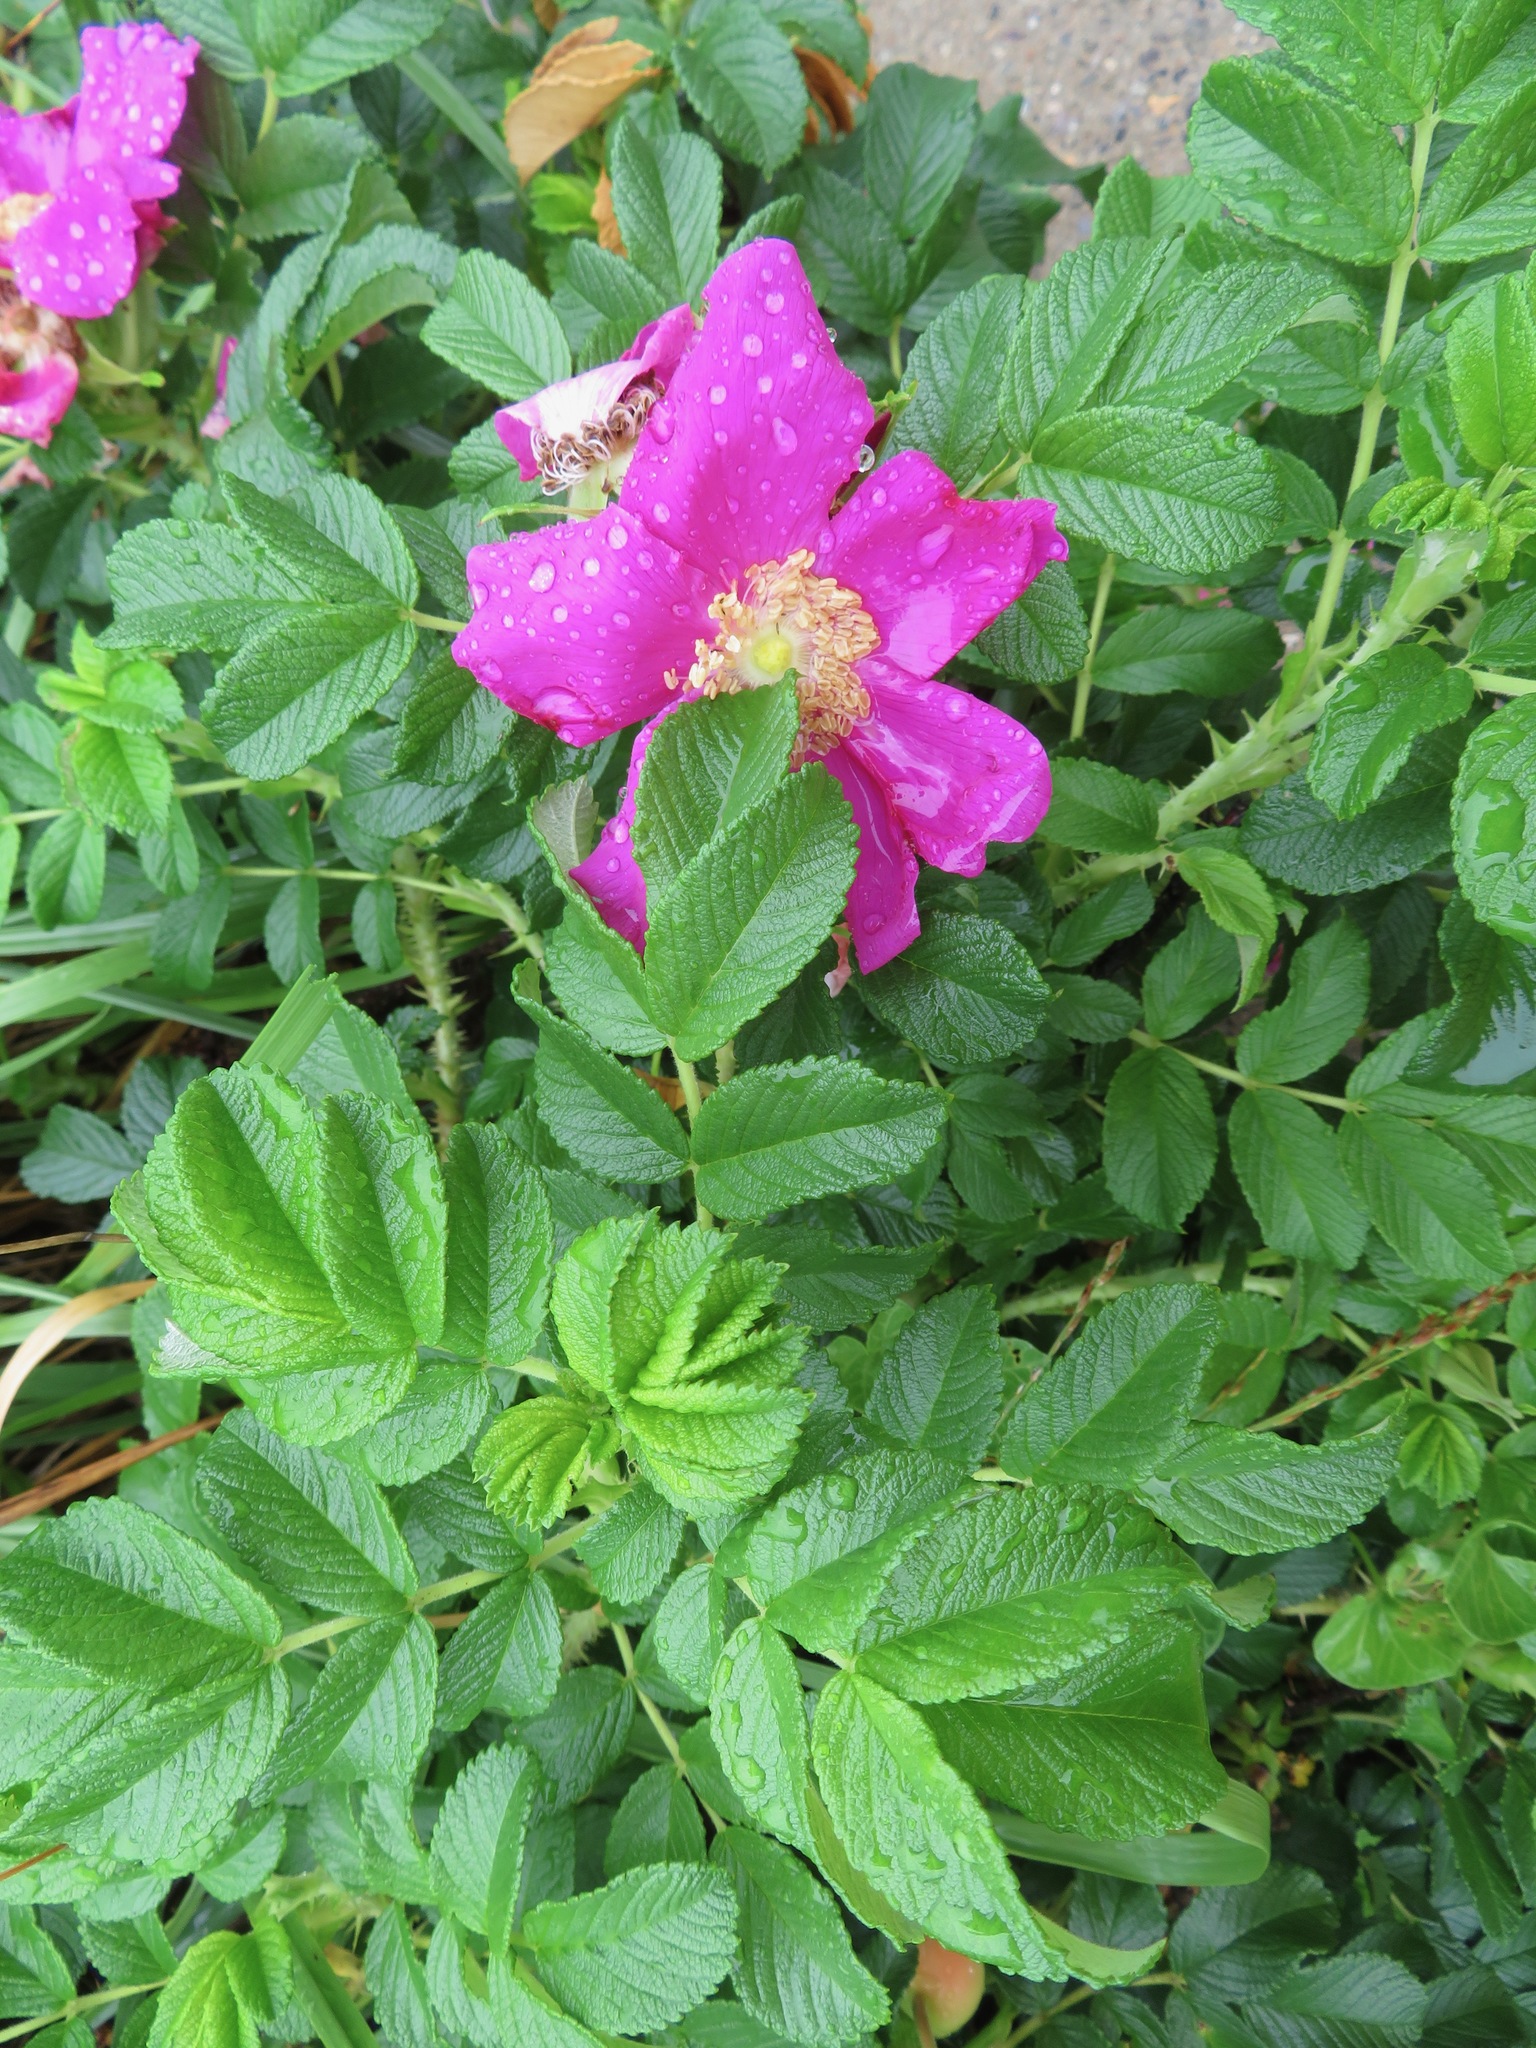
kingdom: Plantae
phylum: Tracheophyta
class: Magnoliopsida
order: Rosales
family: Rosaceae
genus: Rosa
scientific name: Rosa rugosa
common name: Japanese rose
